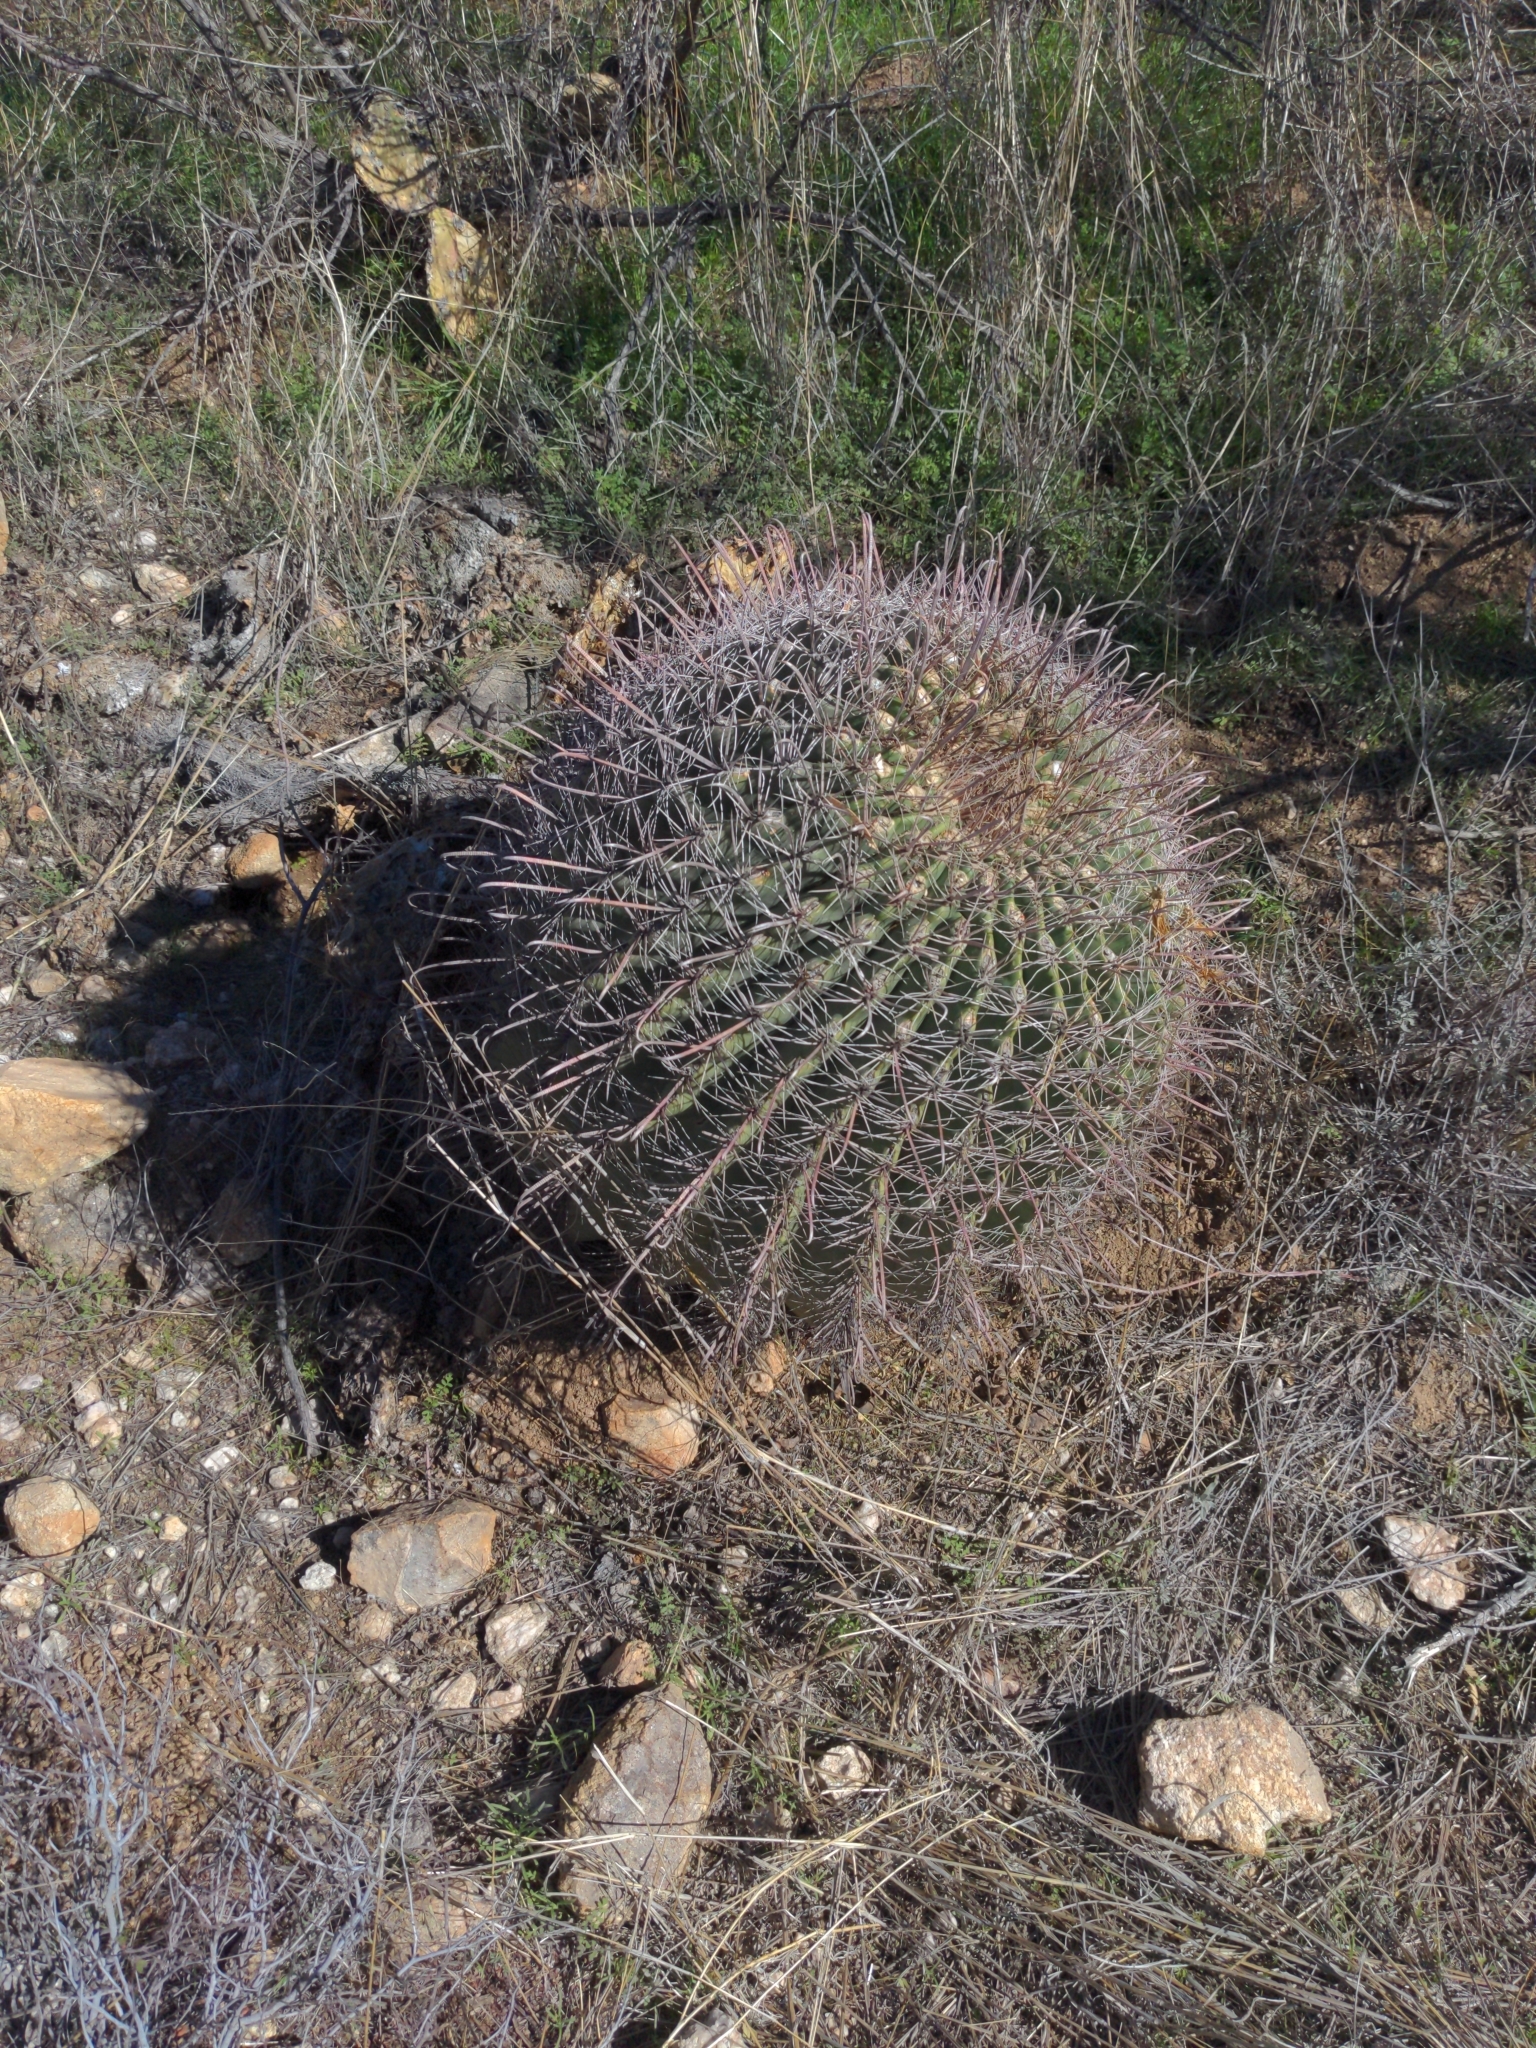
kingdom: Plantae
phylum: Tracheophyta
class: Magnoliopsida
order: Caryophyllales
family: Cactaceae
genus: Ferocactus
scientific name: Ferocactus wislizeni
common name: Candy barrel cactus
